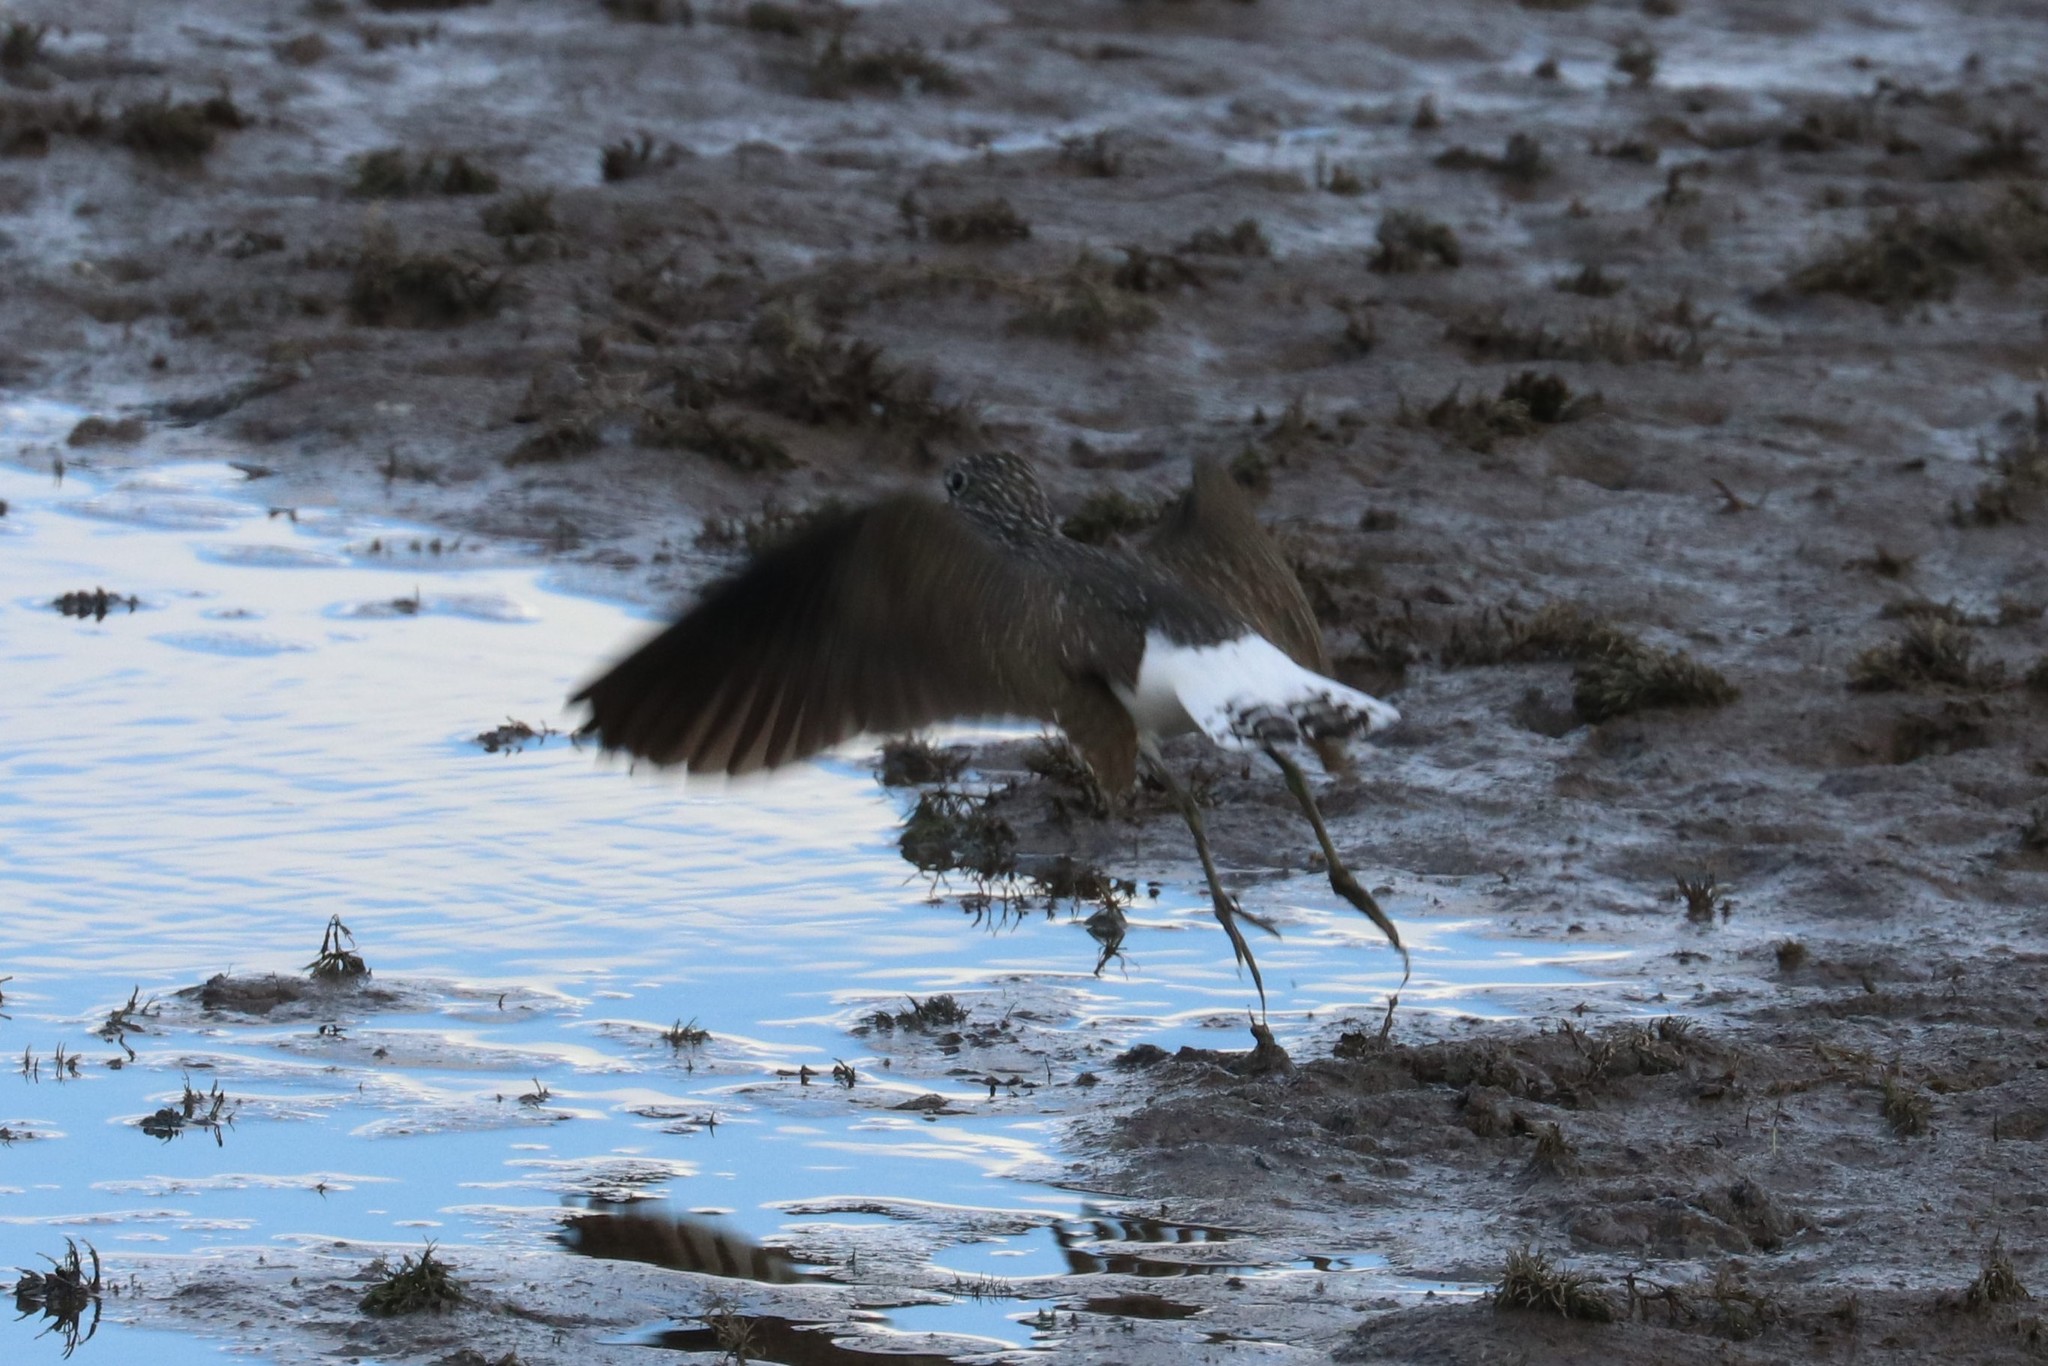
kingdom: Animalia
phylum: Chordata
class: Aves
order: Charadriiformes
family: Scolopacidae
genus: Tringa
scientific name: Tringa ochropus
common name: Green sandpiper
